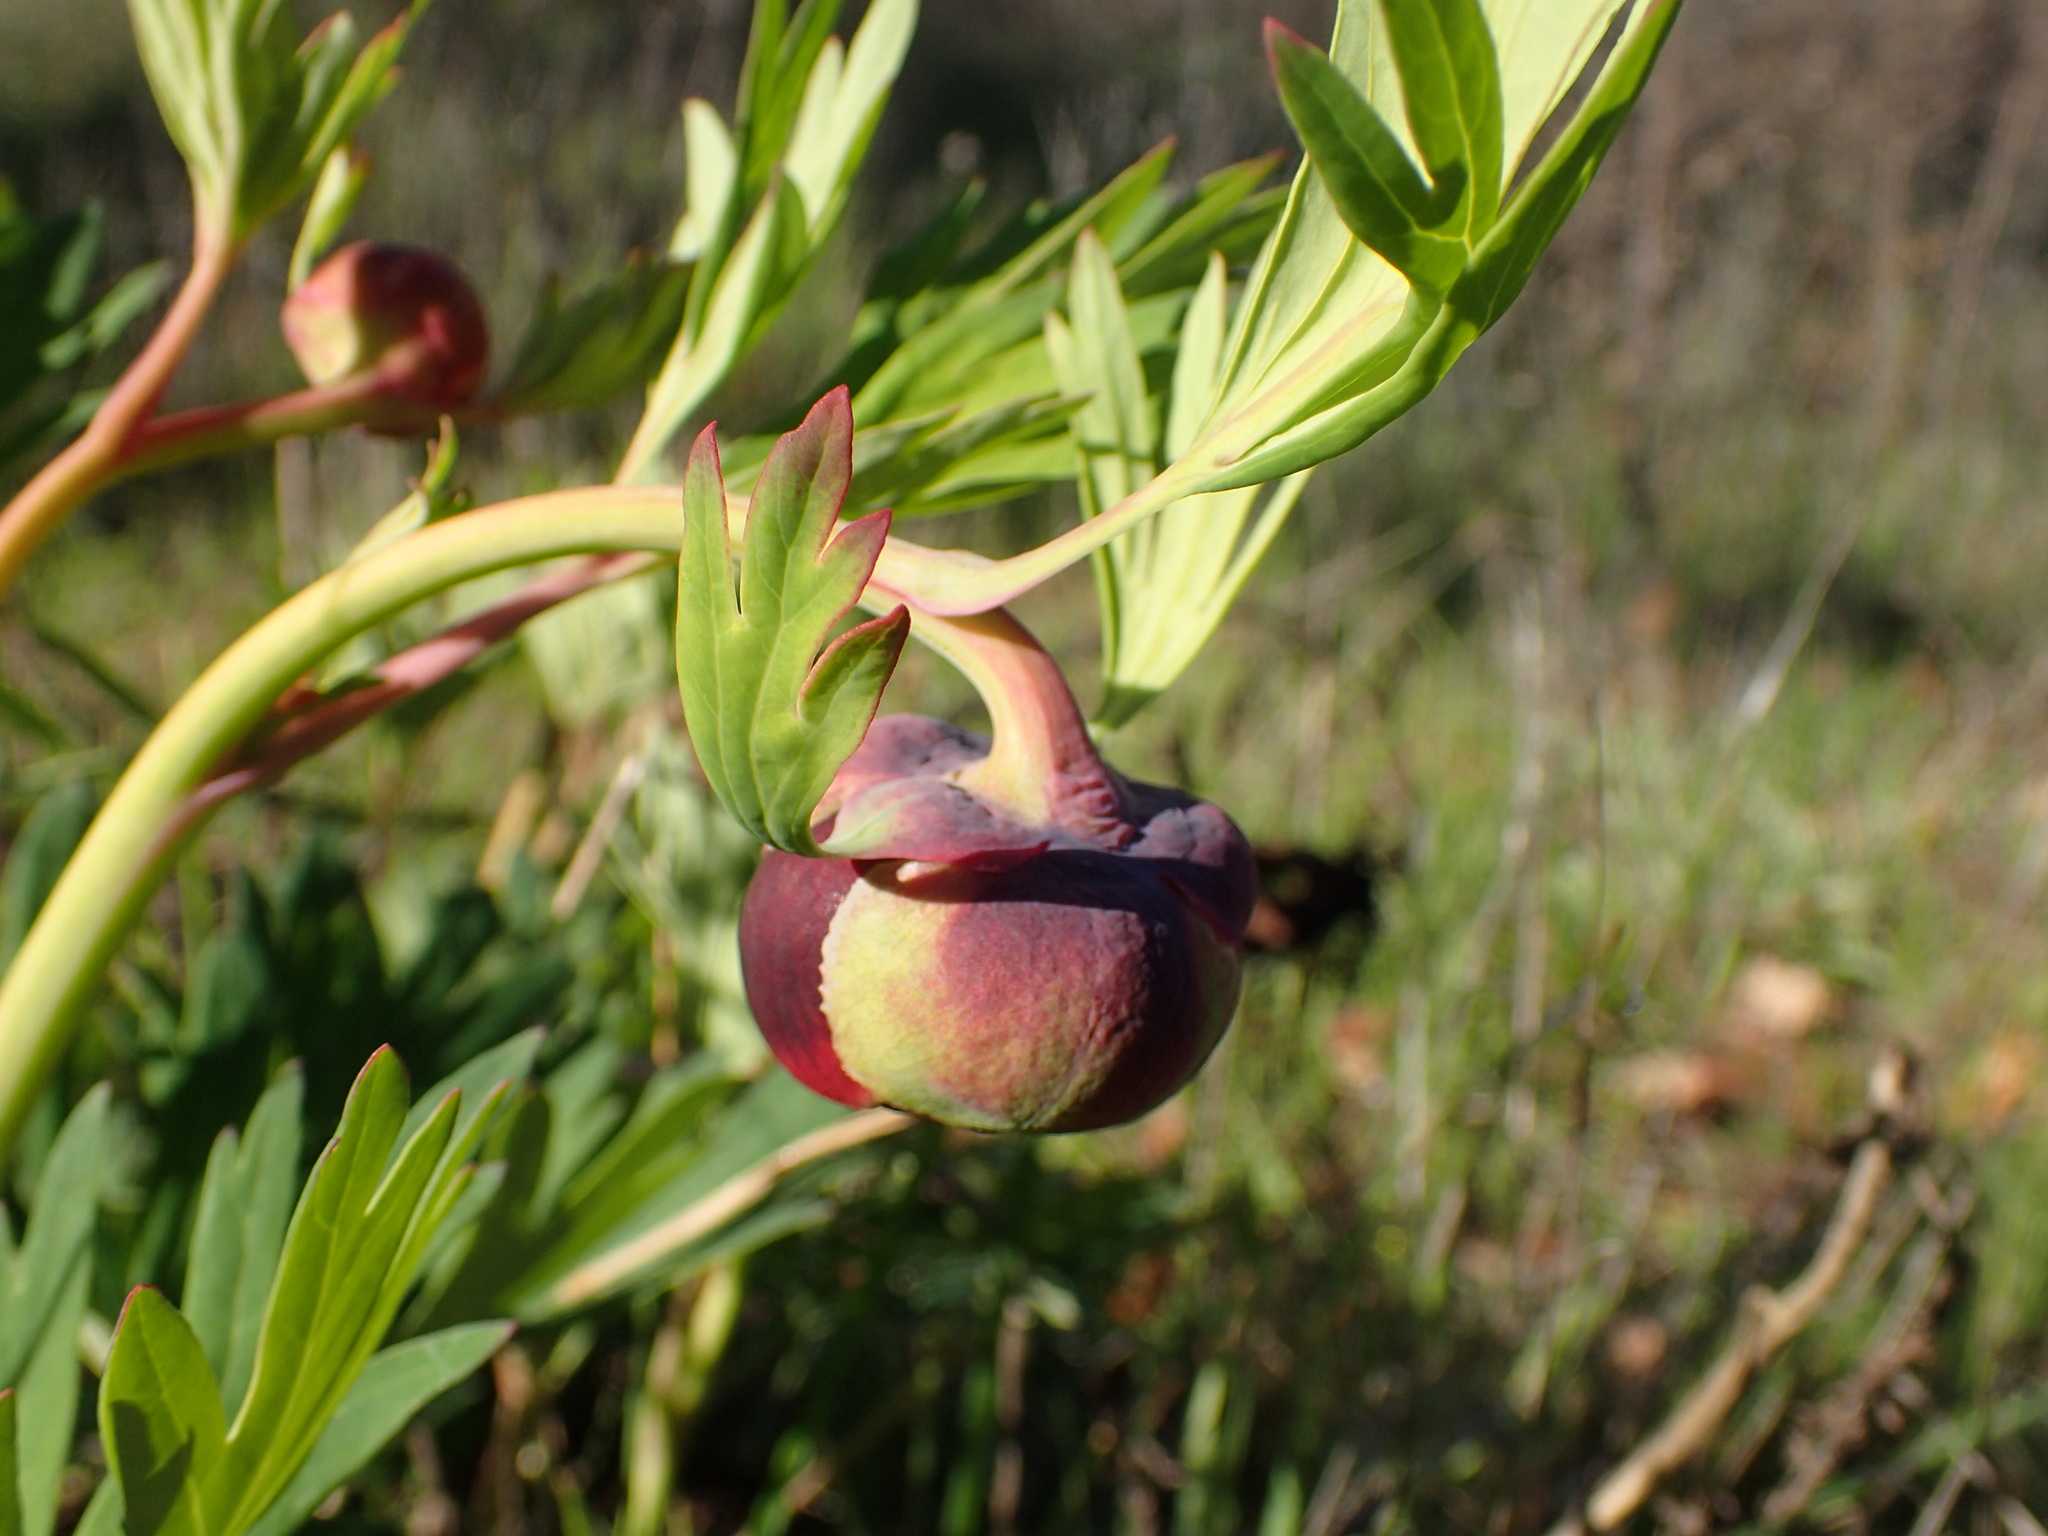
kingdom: Plantae
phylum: Tracheophyta
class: Magnoliopsida
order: Saxifragales
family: Paeoniaceae
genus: Paeonia
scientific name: Paeonia californica
